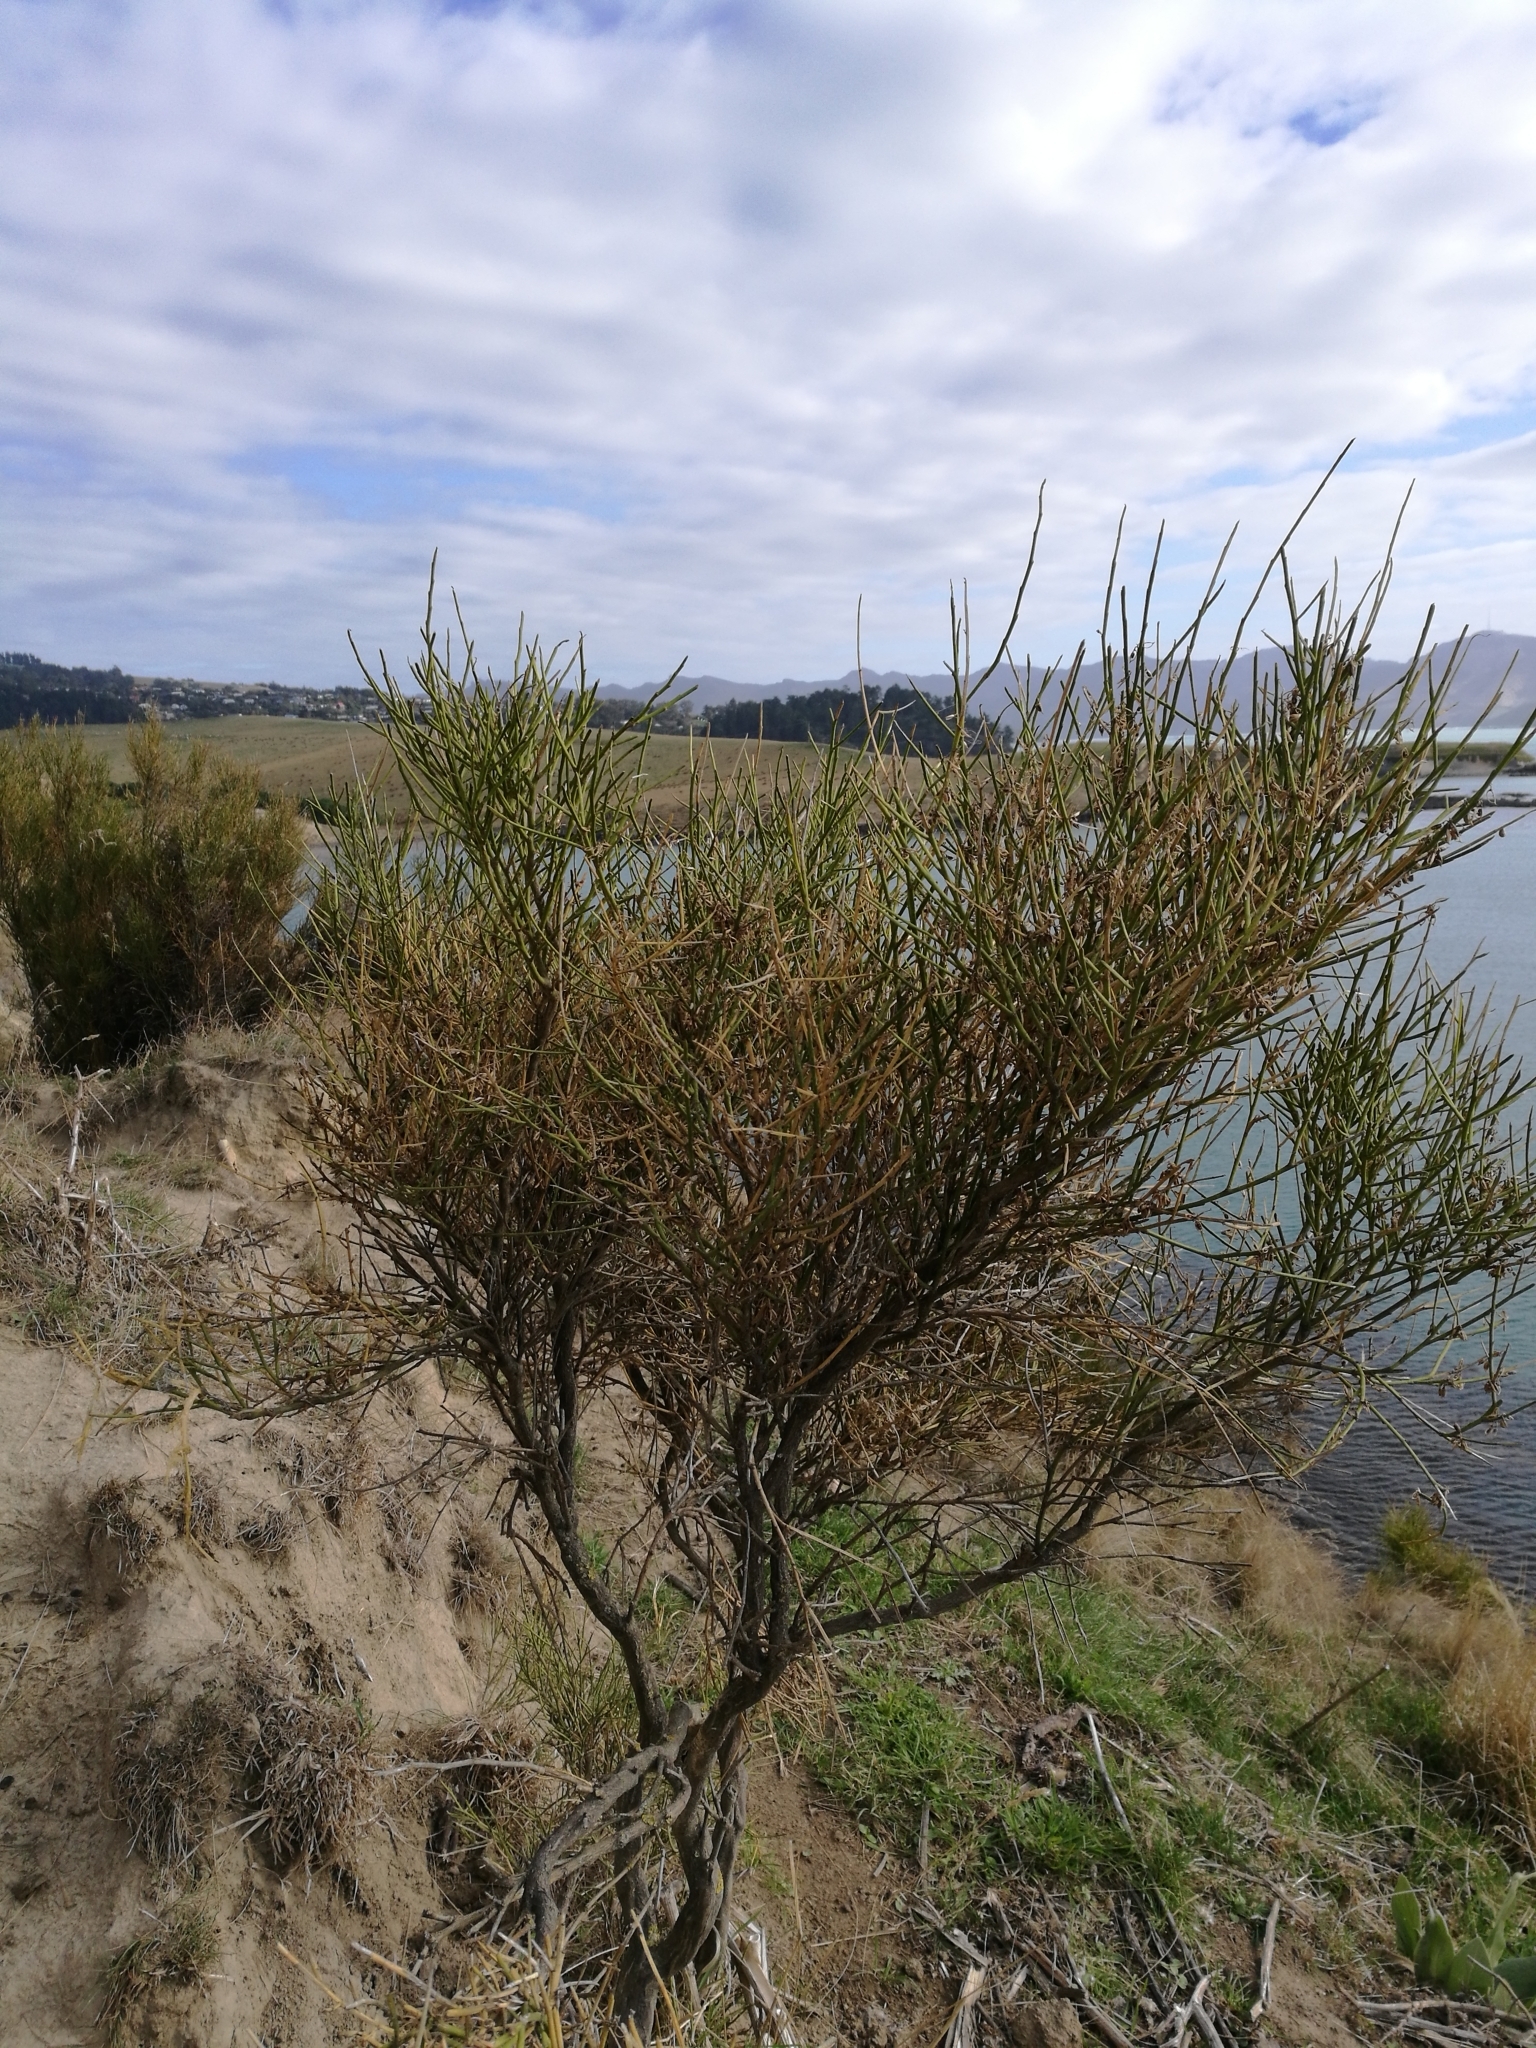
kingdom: Plantae
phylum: Tracheophyta
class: Magnoliopsida
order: Fabales
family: Fabaceae
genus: Carmichaelia
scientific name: Carmichaelia australis
